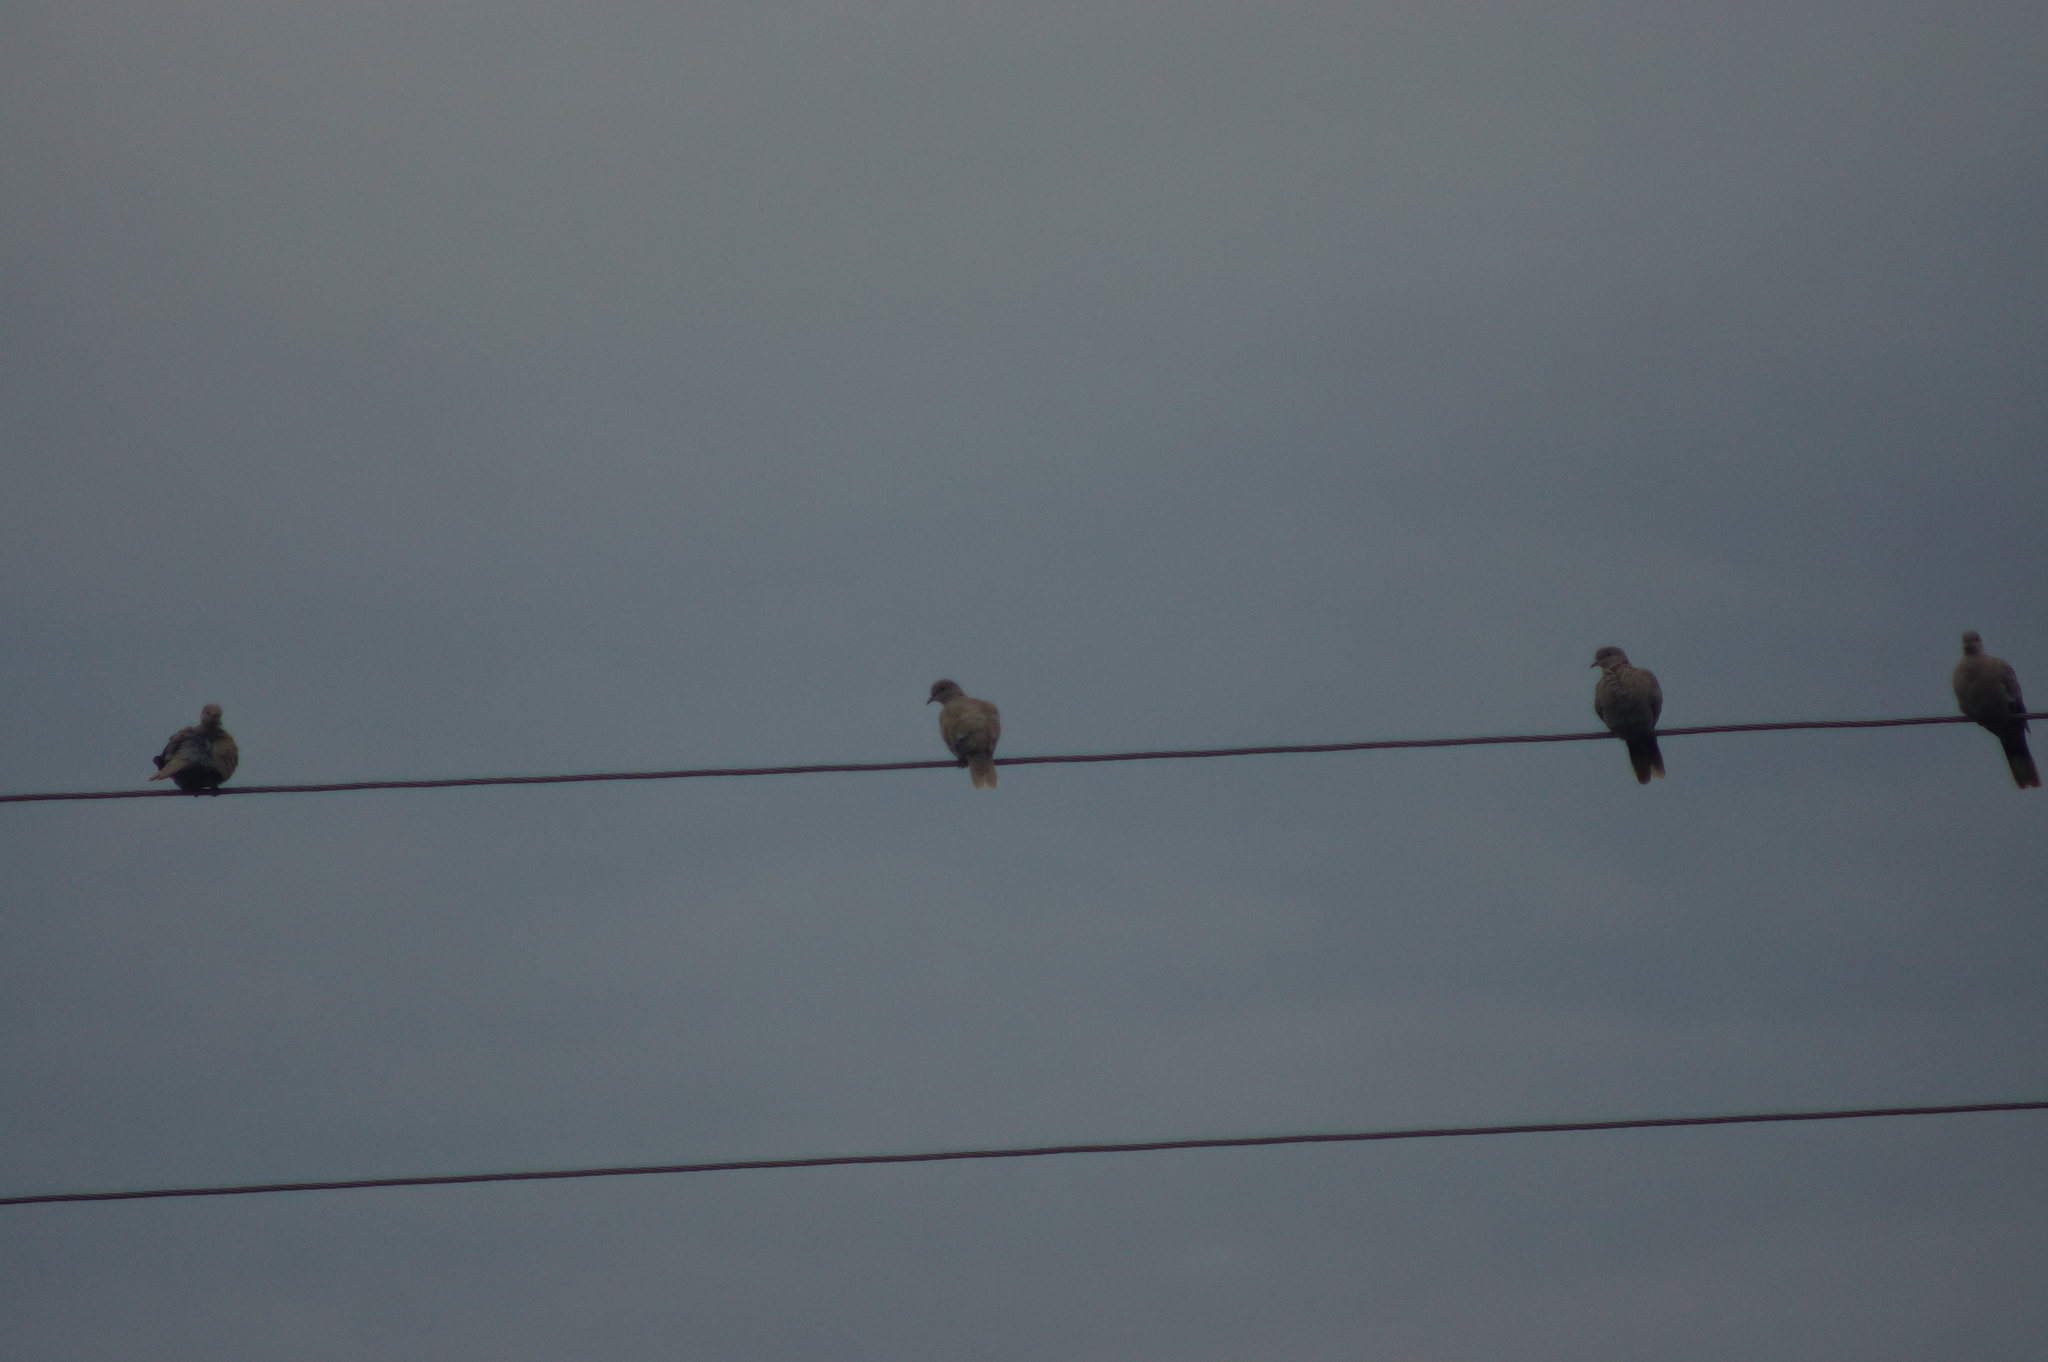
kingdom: Animalia
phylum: Chordata
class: Aves
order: Columbiformes
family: Columbidae
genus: Streptopelia
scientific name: Streptopelia decaocto
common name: Eurasian collared dove
